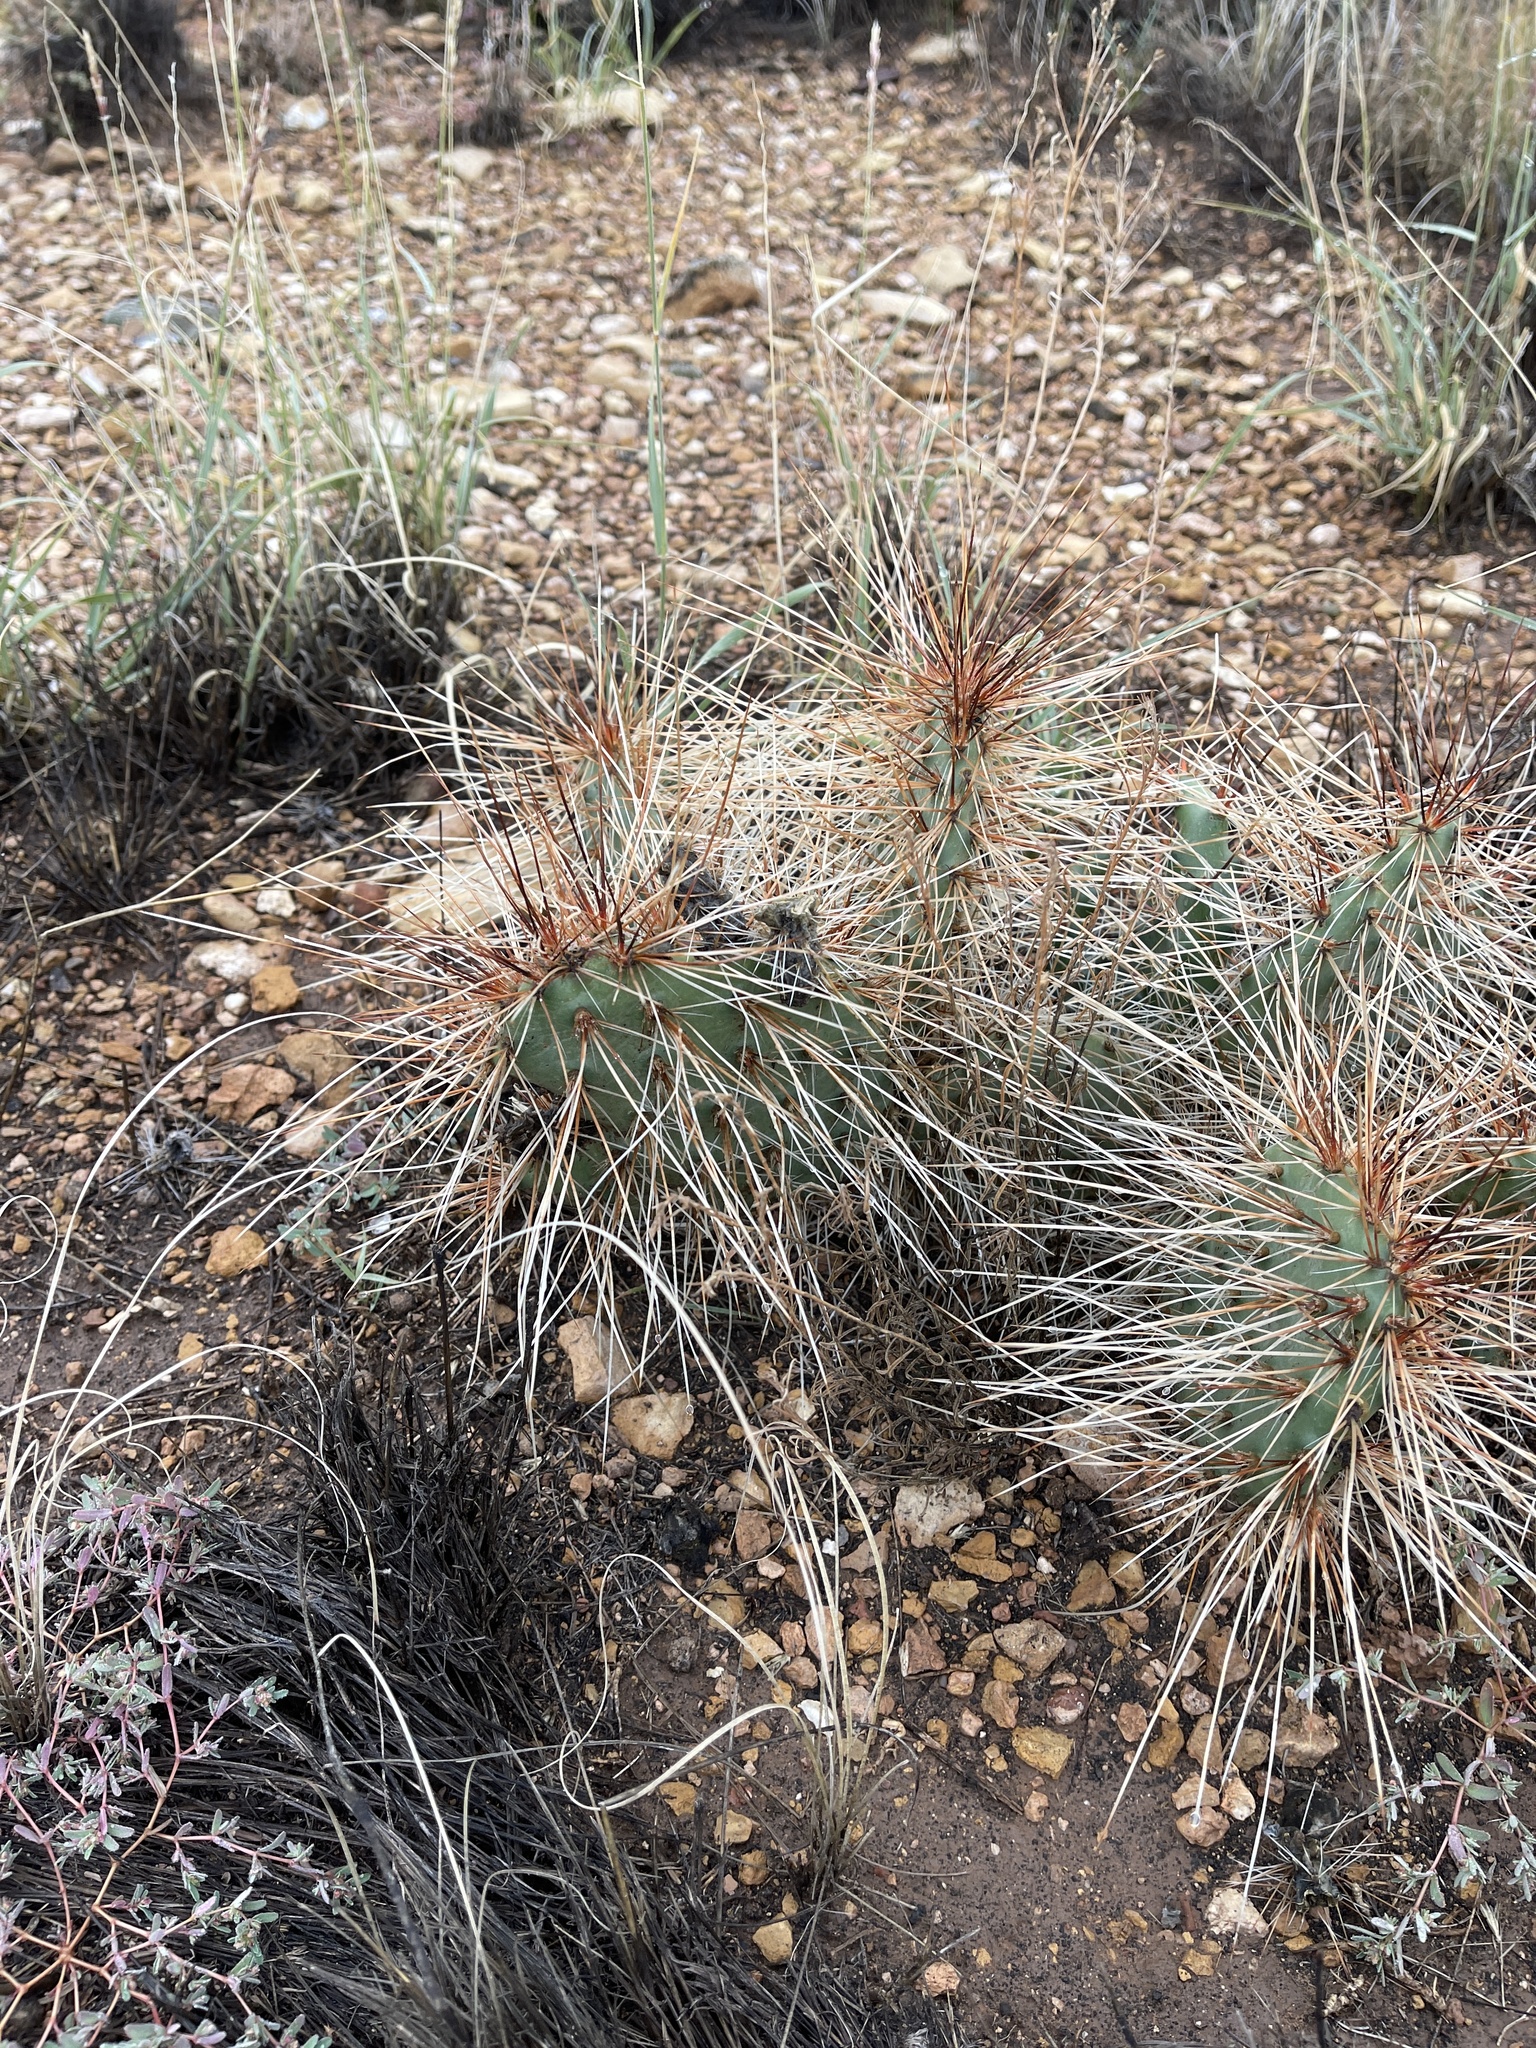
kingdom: Plantae
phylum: Tracheophyta
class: Magnoliopsida
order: Caryophyllales
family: Cactaceae
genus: Opuntia
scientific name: Opuntia polyacantha
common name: Plains prickly-pear
